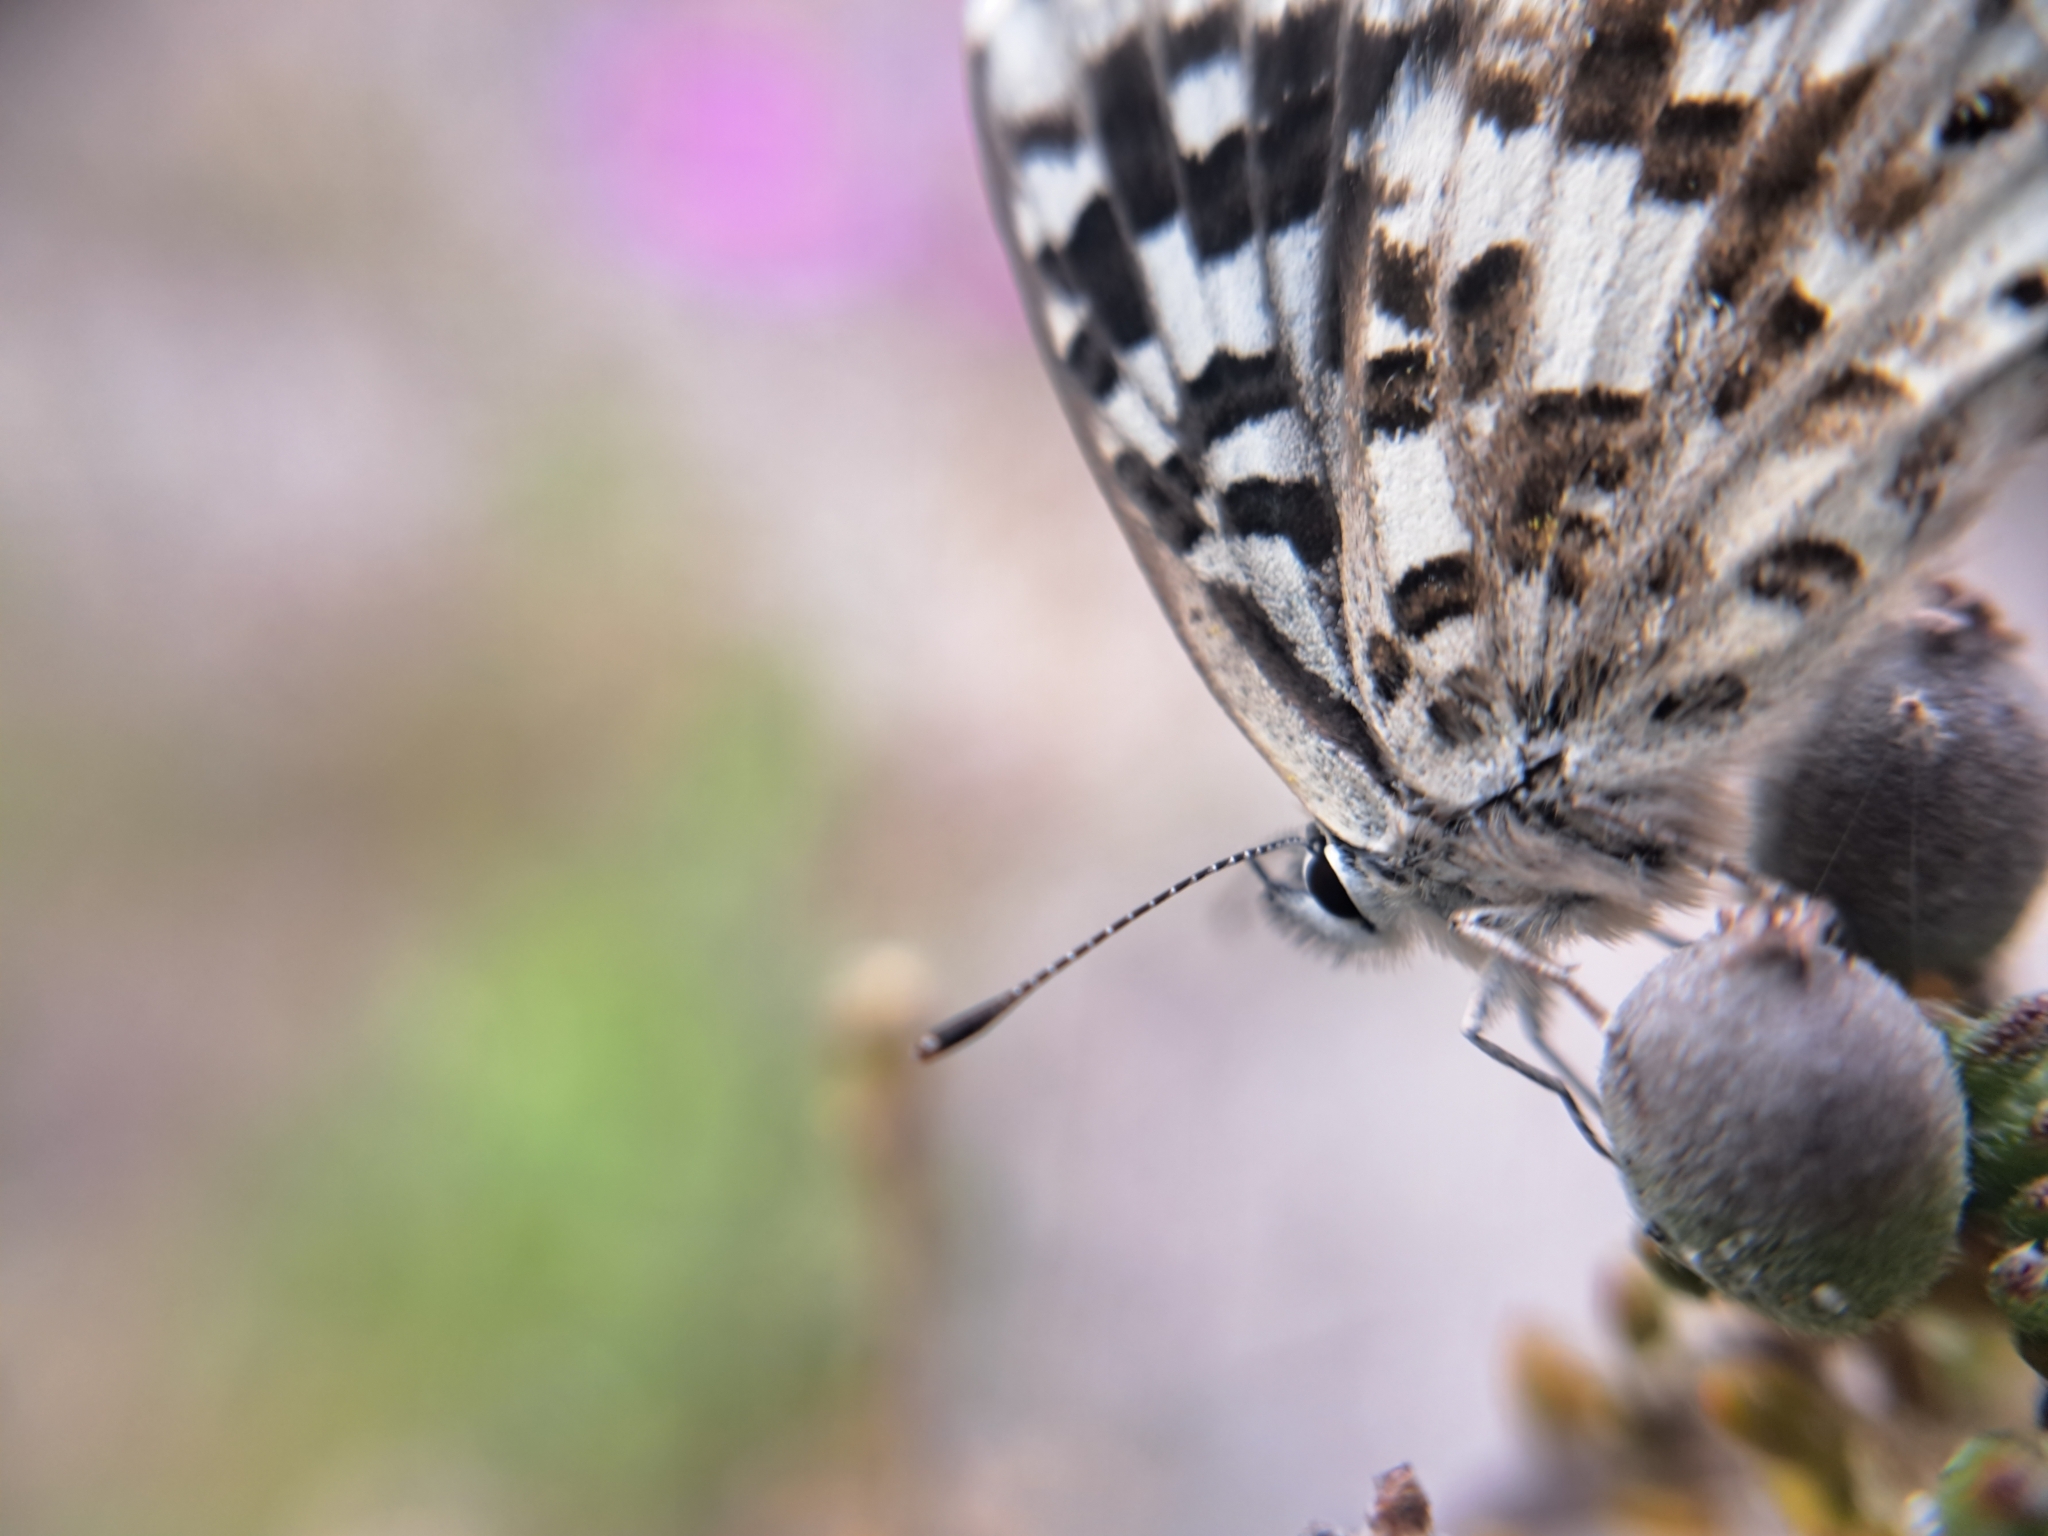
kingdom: Animalia
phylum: Arthropoda
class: Insecta
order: Lepidoptera
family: Lycaenidae
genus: Tarucus
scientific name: Tarucus thespis
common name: Vivid dotted blue
